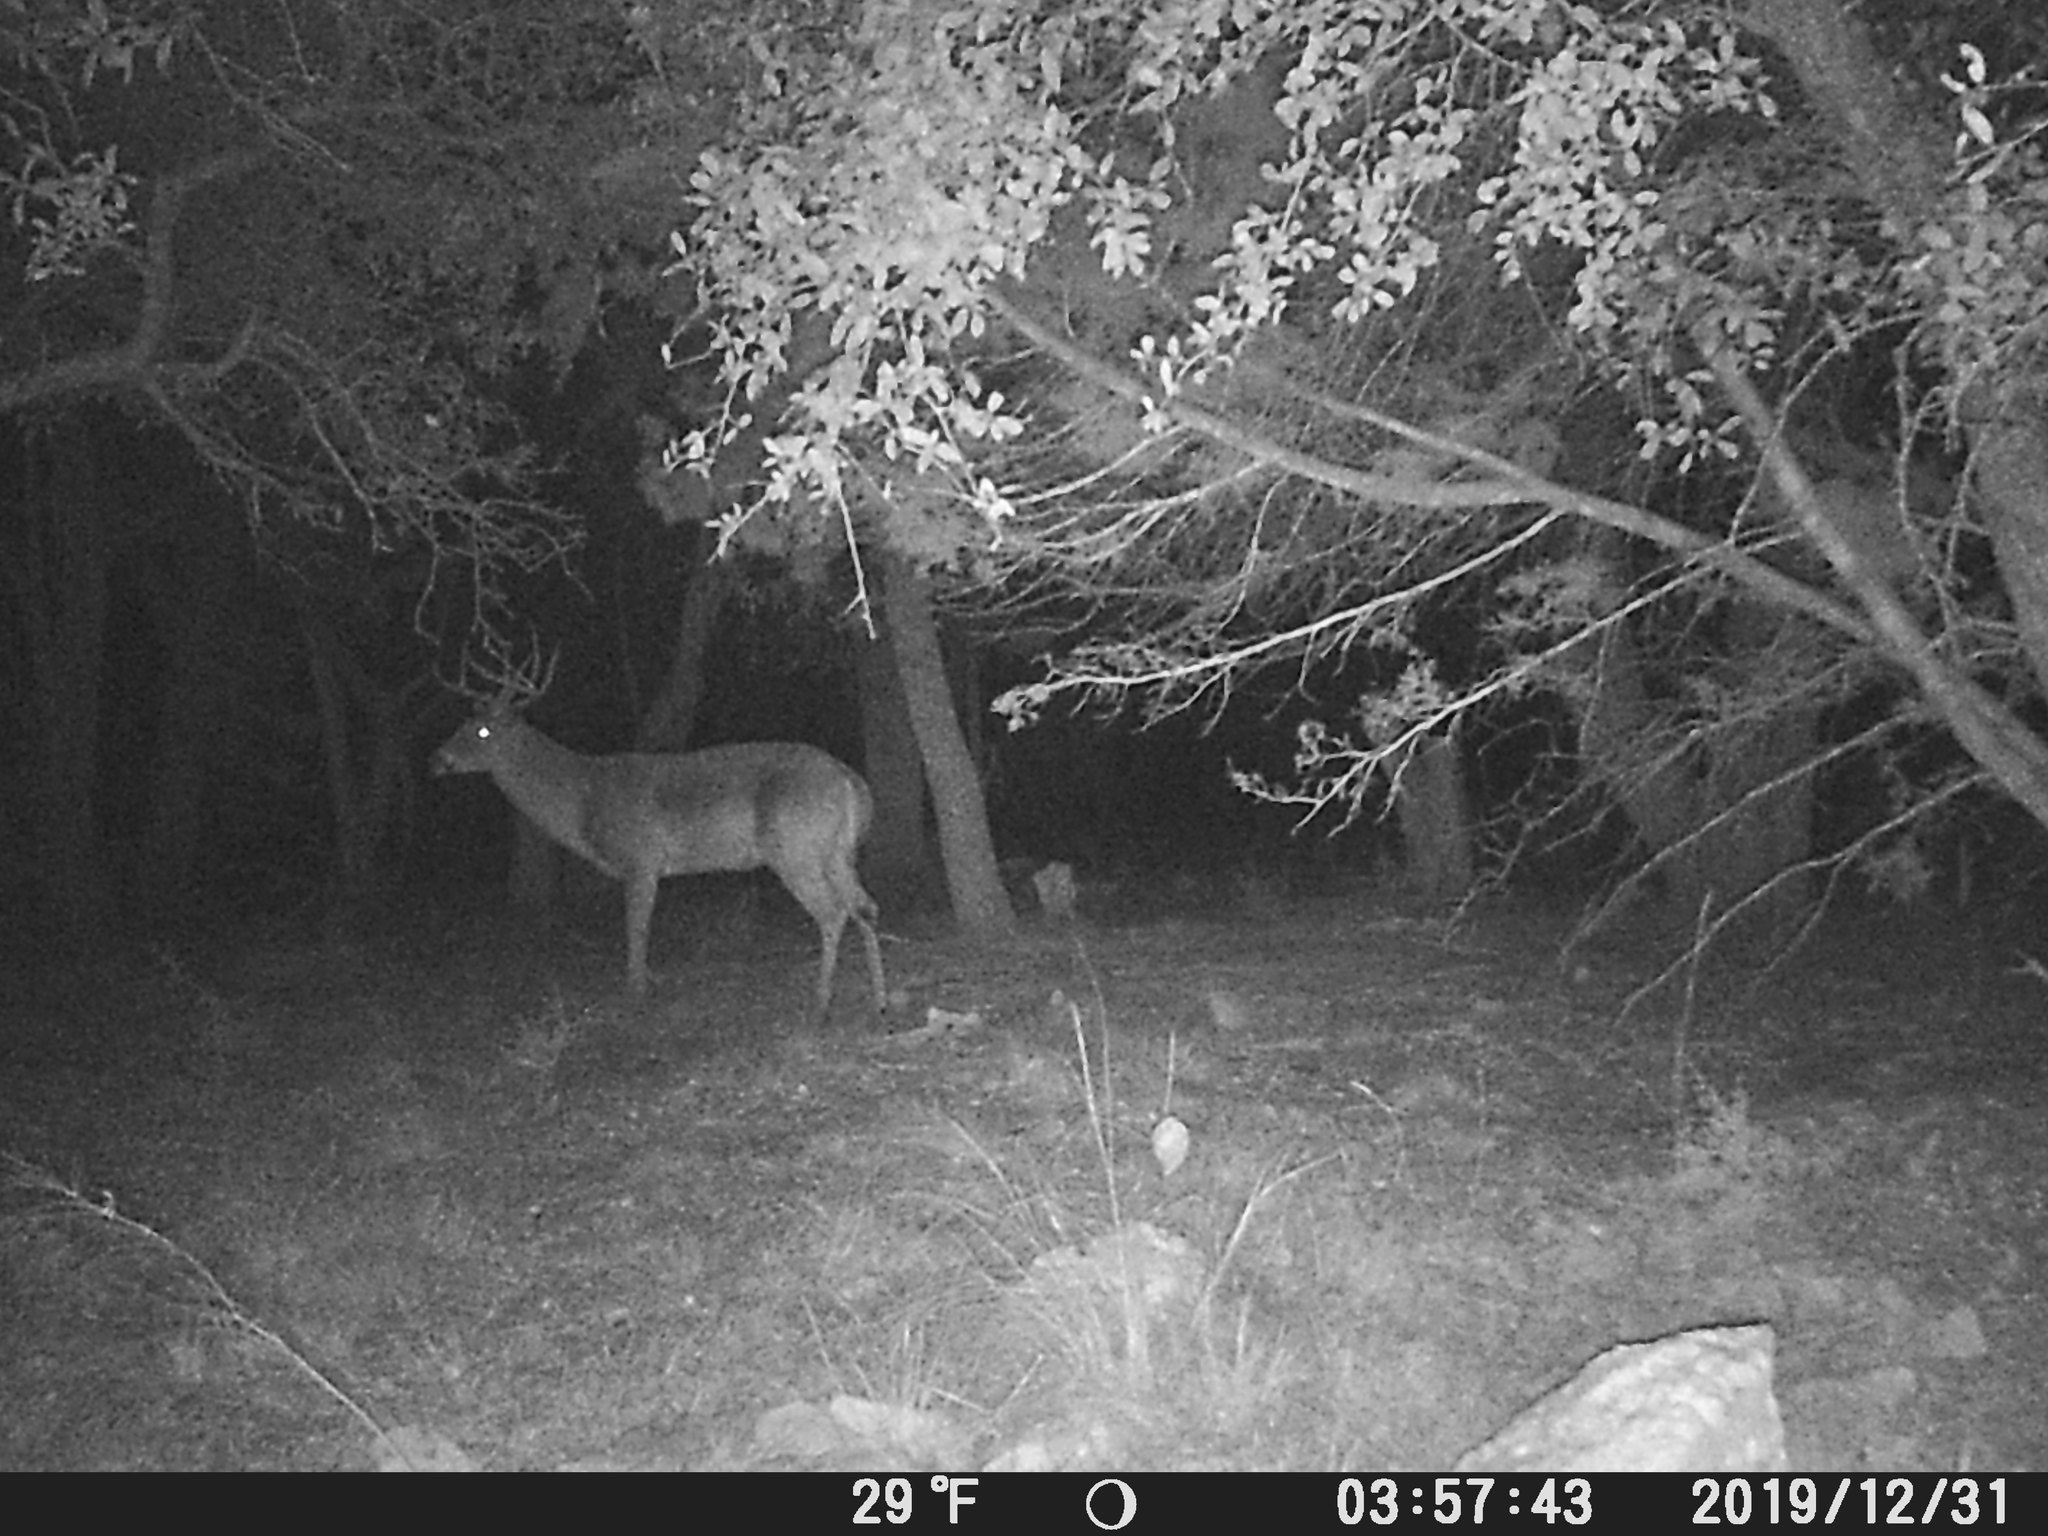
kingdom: Animalia
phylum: Chordata
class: Mammalia
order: Artiodactyla
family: Cervidae
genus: Odocoileus
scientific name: Odocoileus virginianus
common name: White-tailed deer
